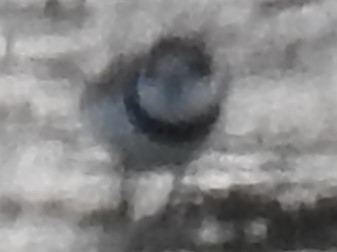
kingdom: Animalia
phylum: Chordata
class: Aves
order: Charadriiformes
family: Charadriidae
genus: Charadrius
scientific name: Charadrius semipalmatus
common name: Semipalmated plover
